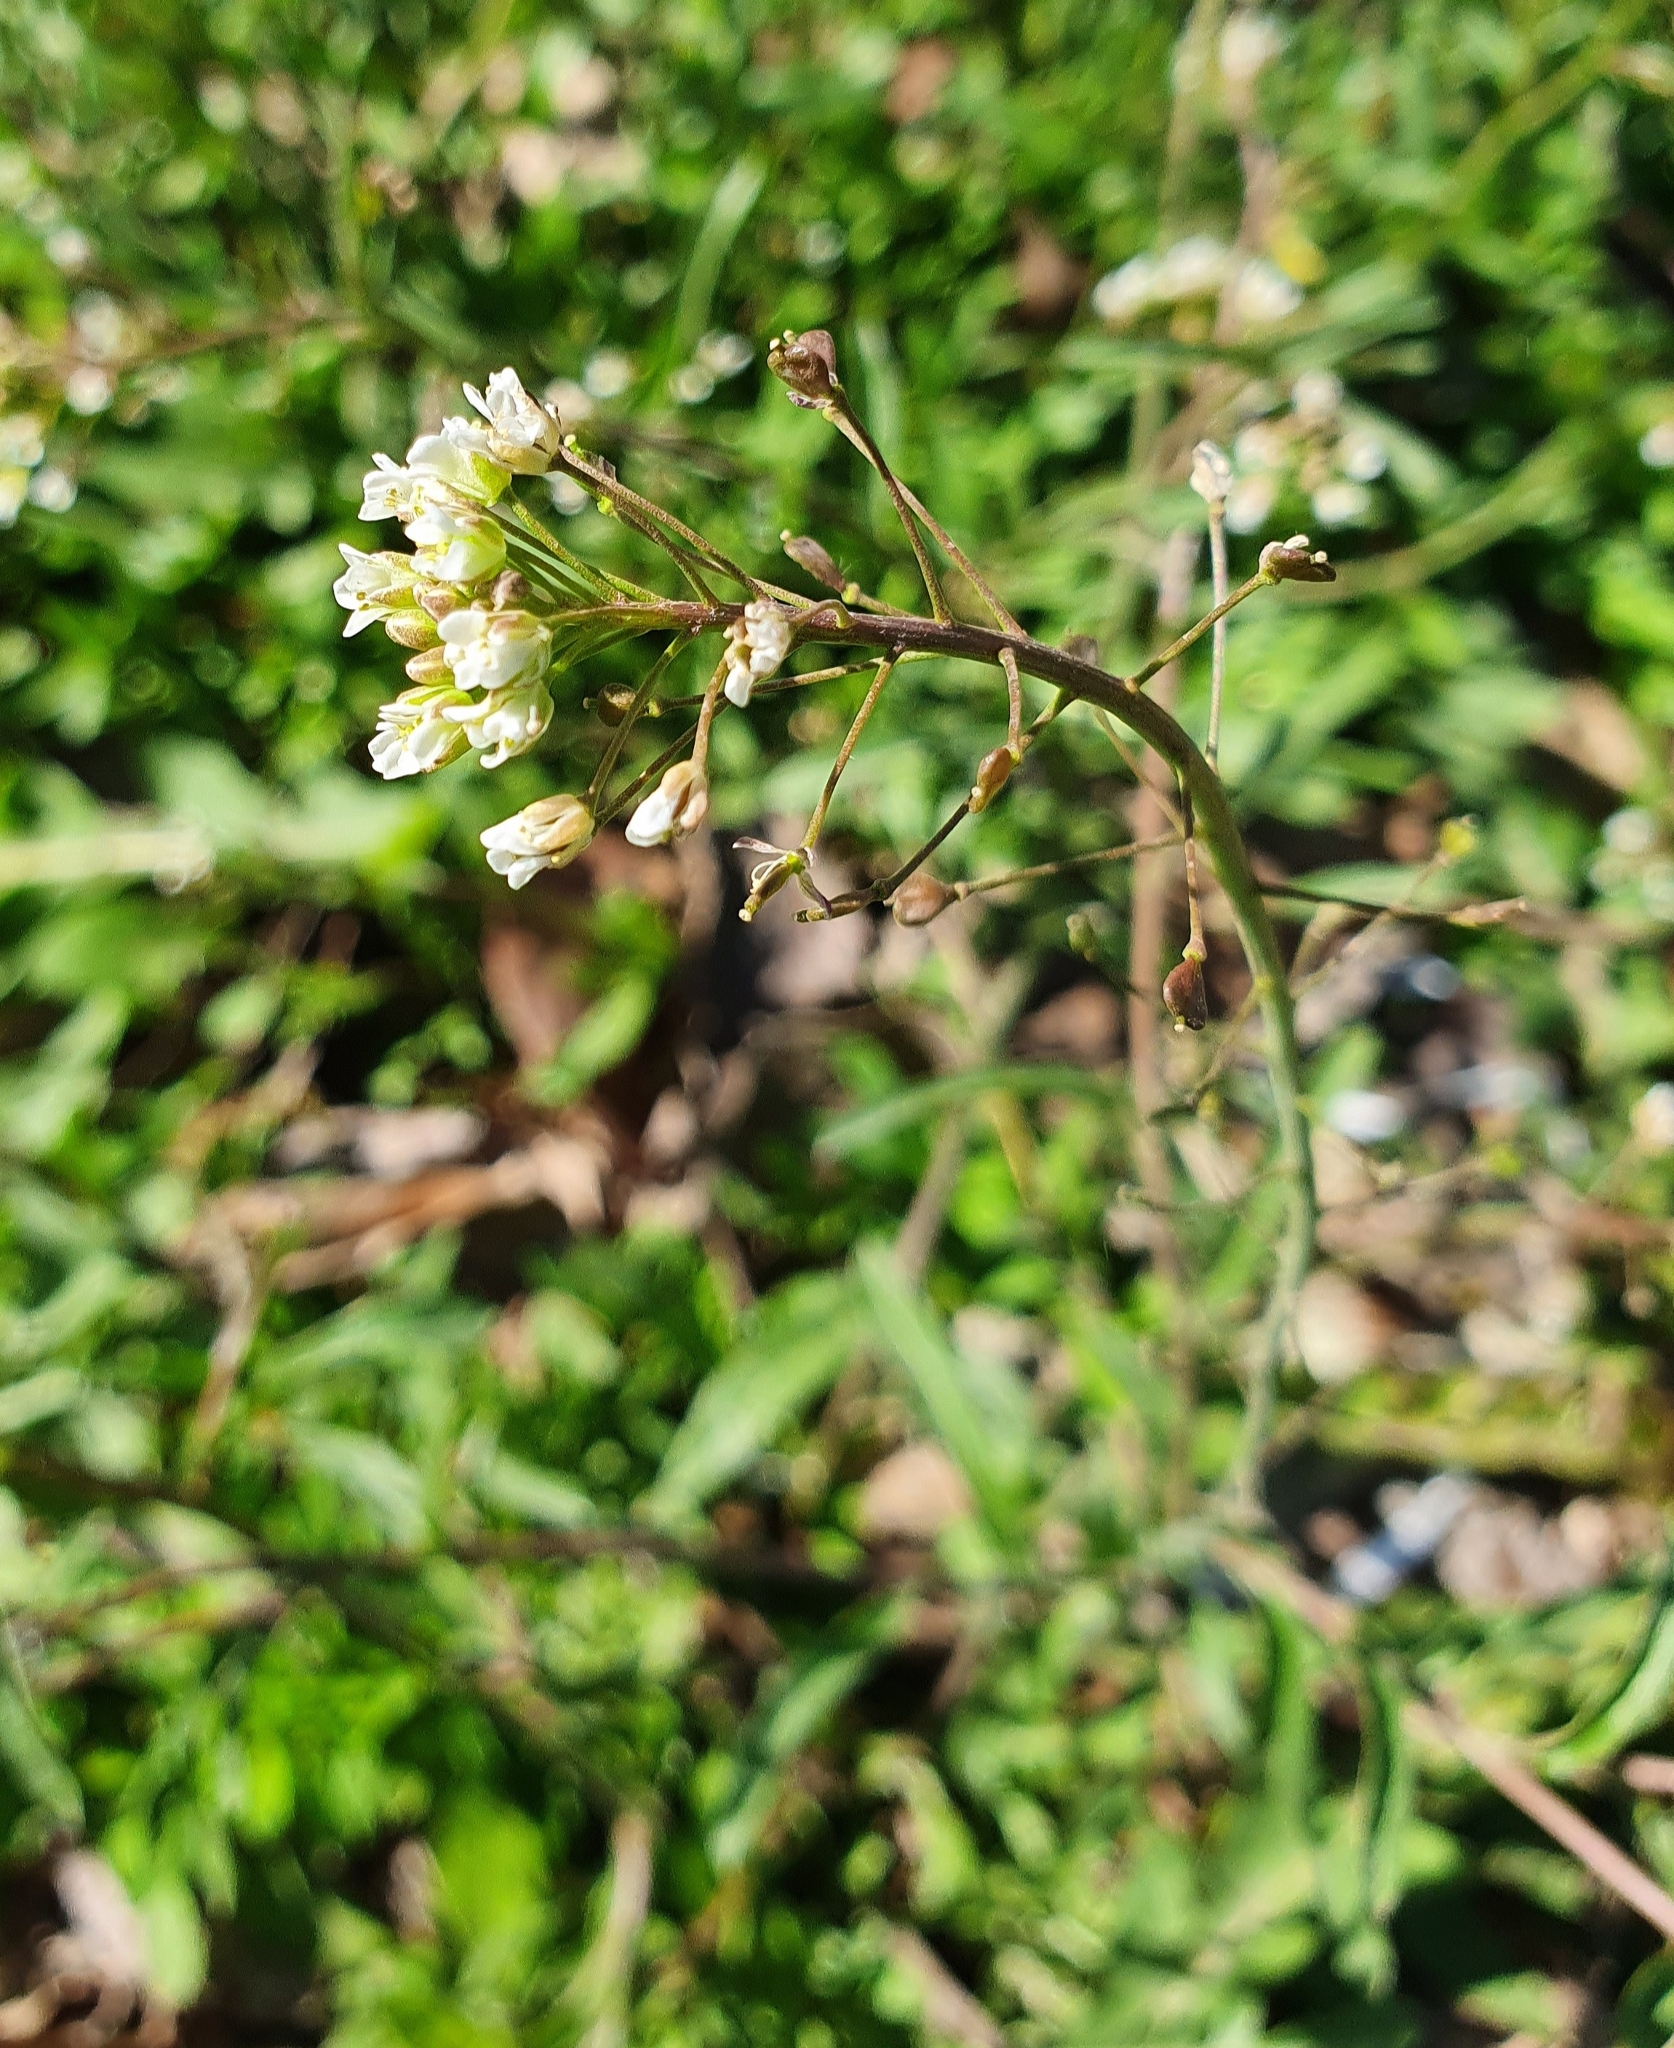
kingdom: Plantae
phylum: Tracheophyta
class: Magnoliopsida
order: Brassicales
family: Brassicaceae
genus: Capsella
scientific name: Capsella bursa-pastoris
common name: Shepherd's purse
